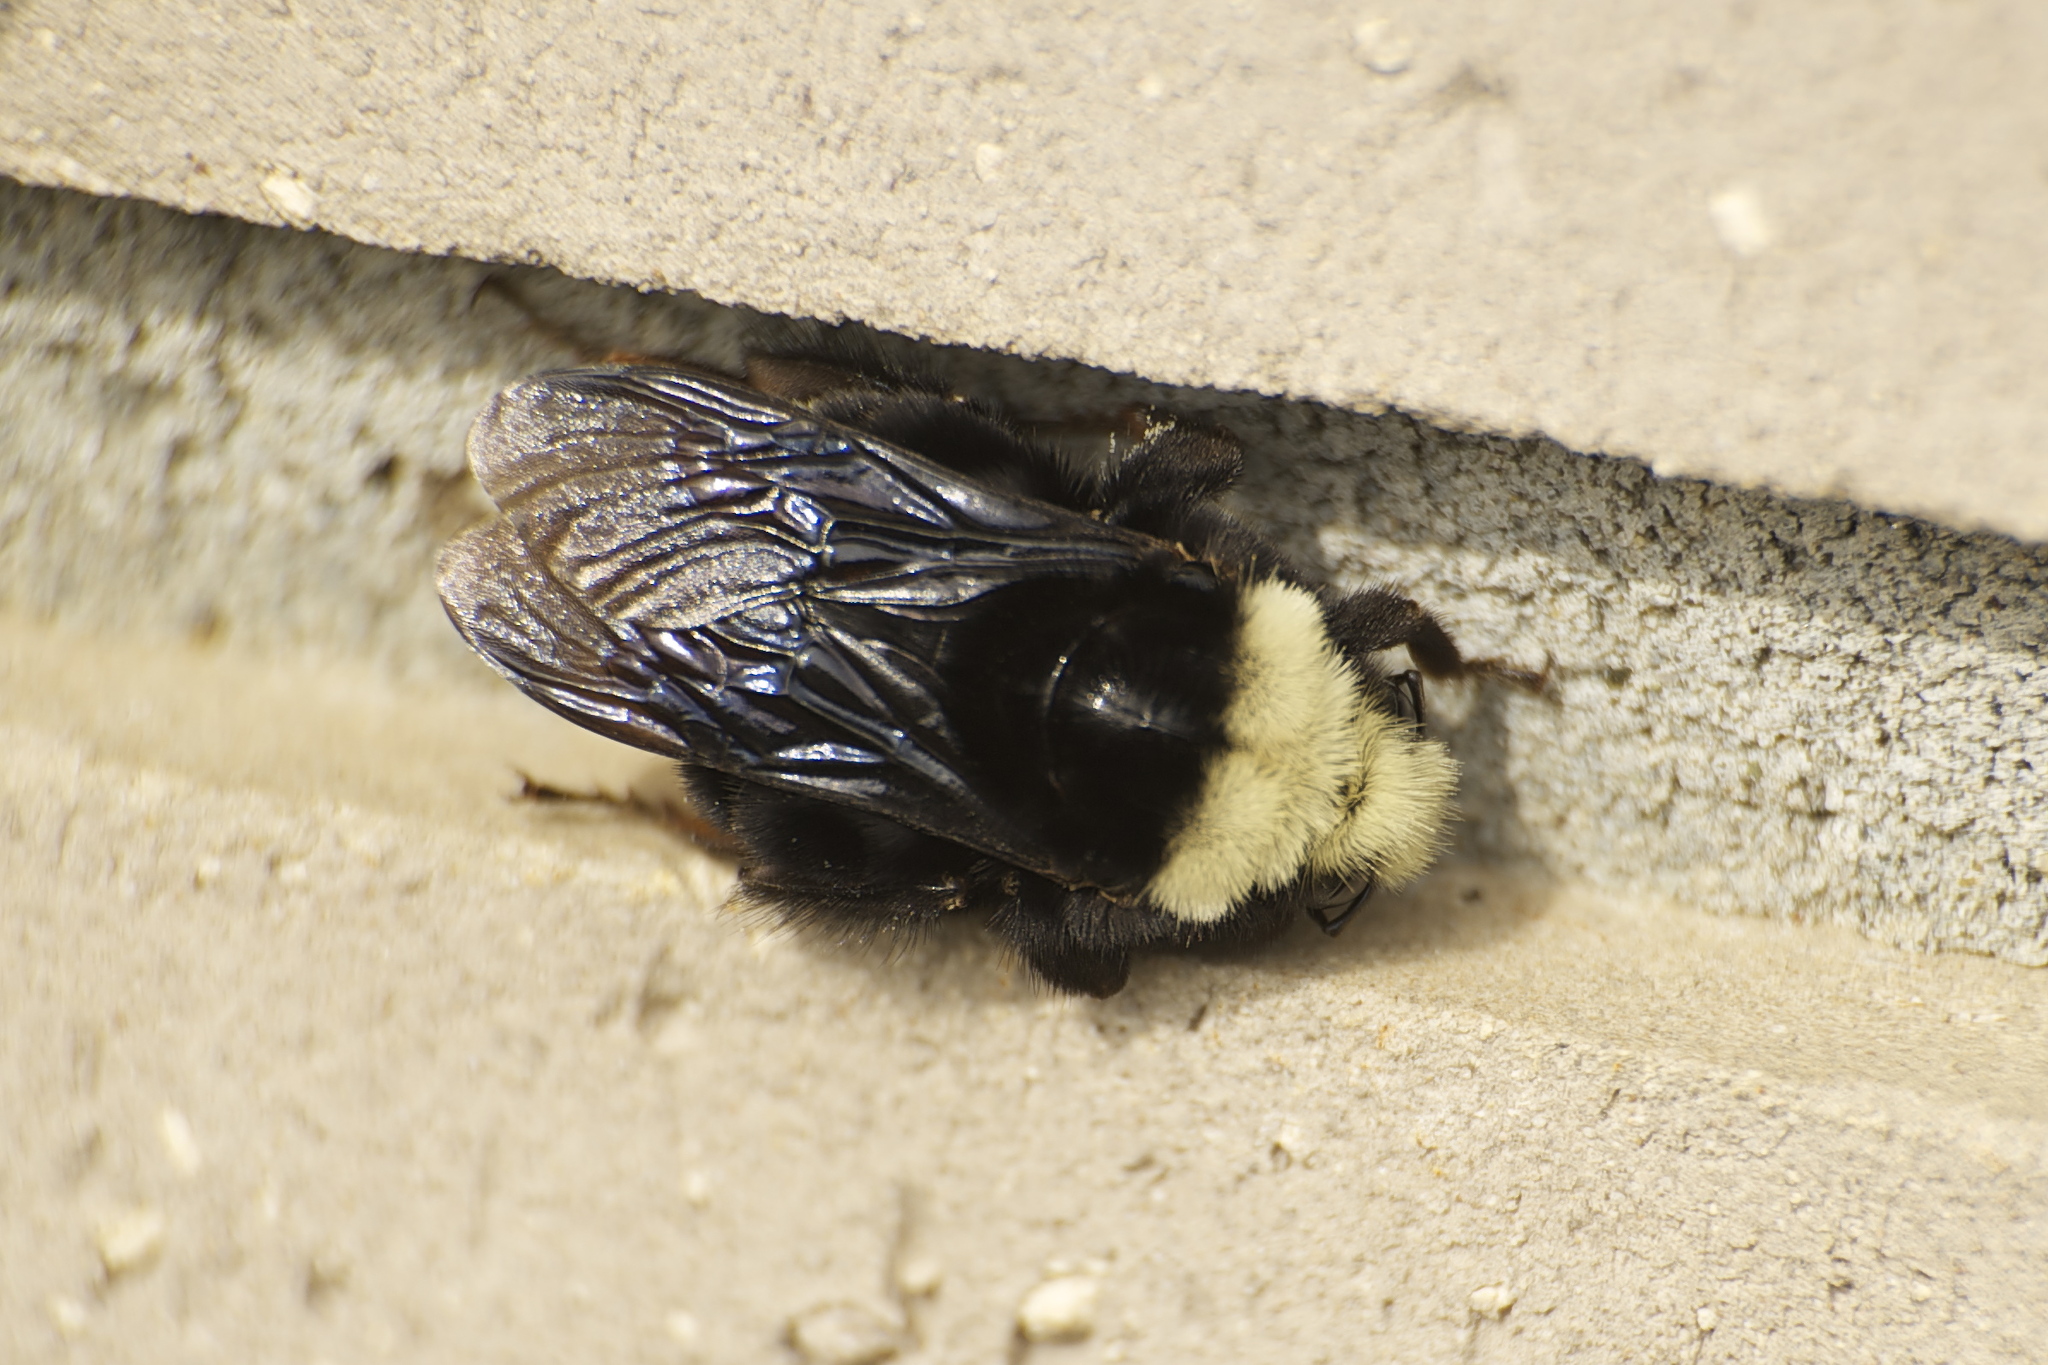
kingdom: Animalia
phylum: Arthropoda
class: Insecta
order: Hymenoptera
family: Apidae
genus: Pyrobombus
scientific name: Pyrobombus
